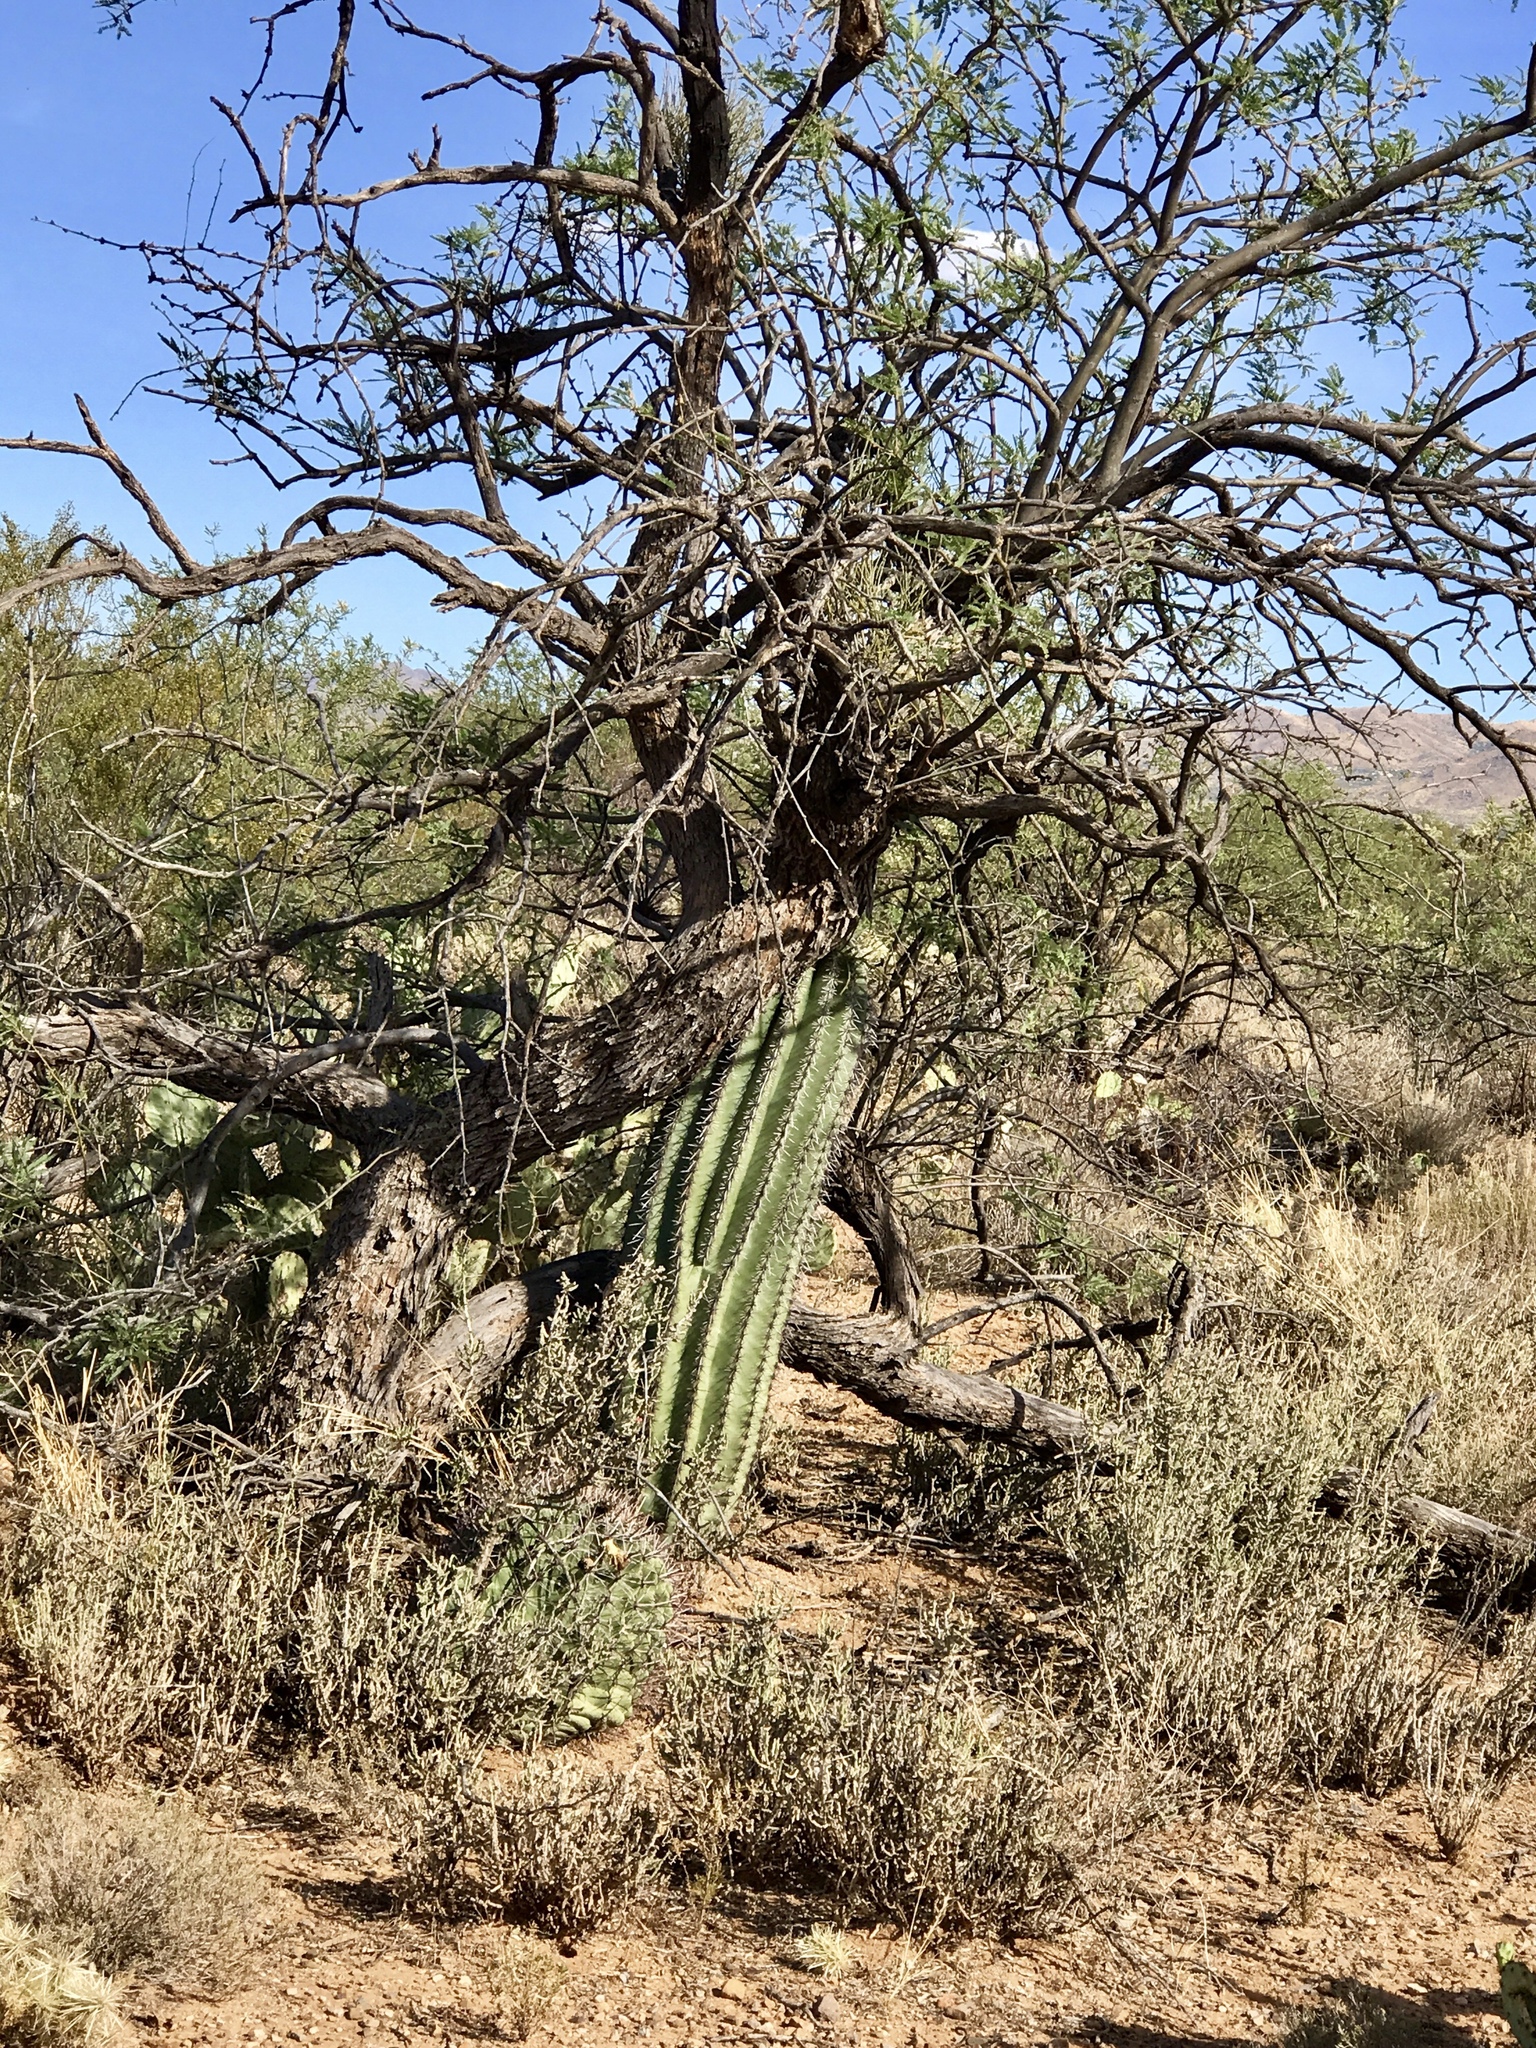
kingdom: Plantae
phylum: Tracheophyta
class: Magnoliopsida
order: Caryophyllales
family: Cactaceae
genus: Carnegiea
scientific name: Carnegiea gigantea
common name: Saguaro
